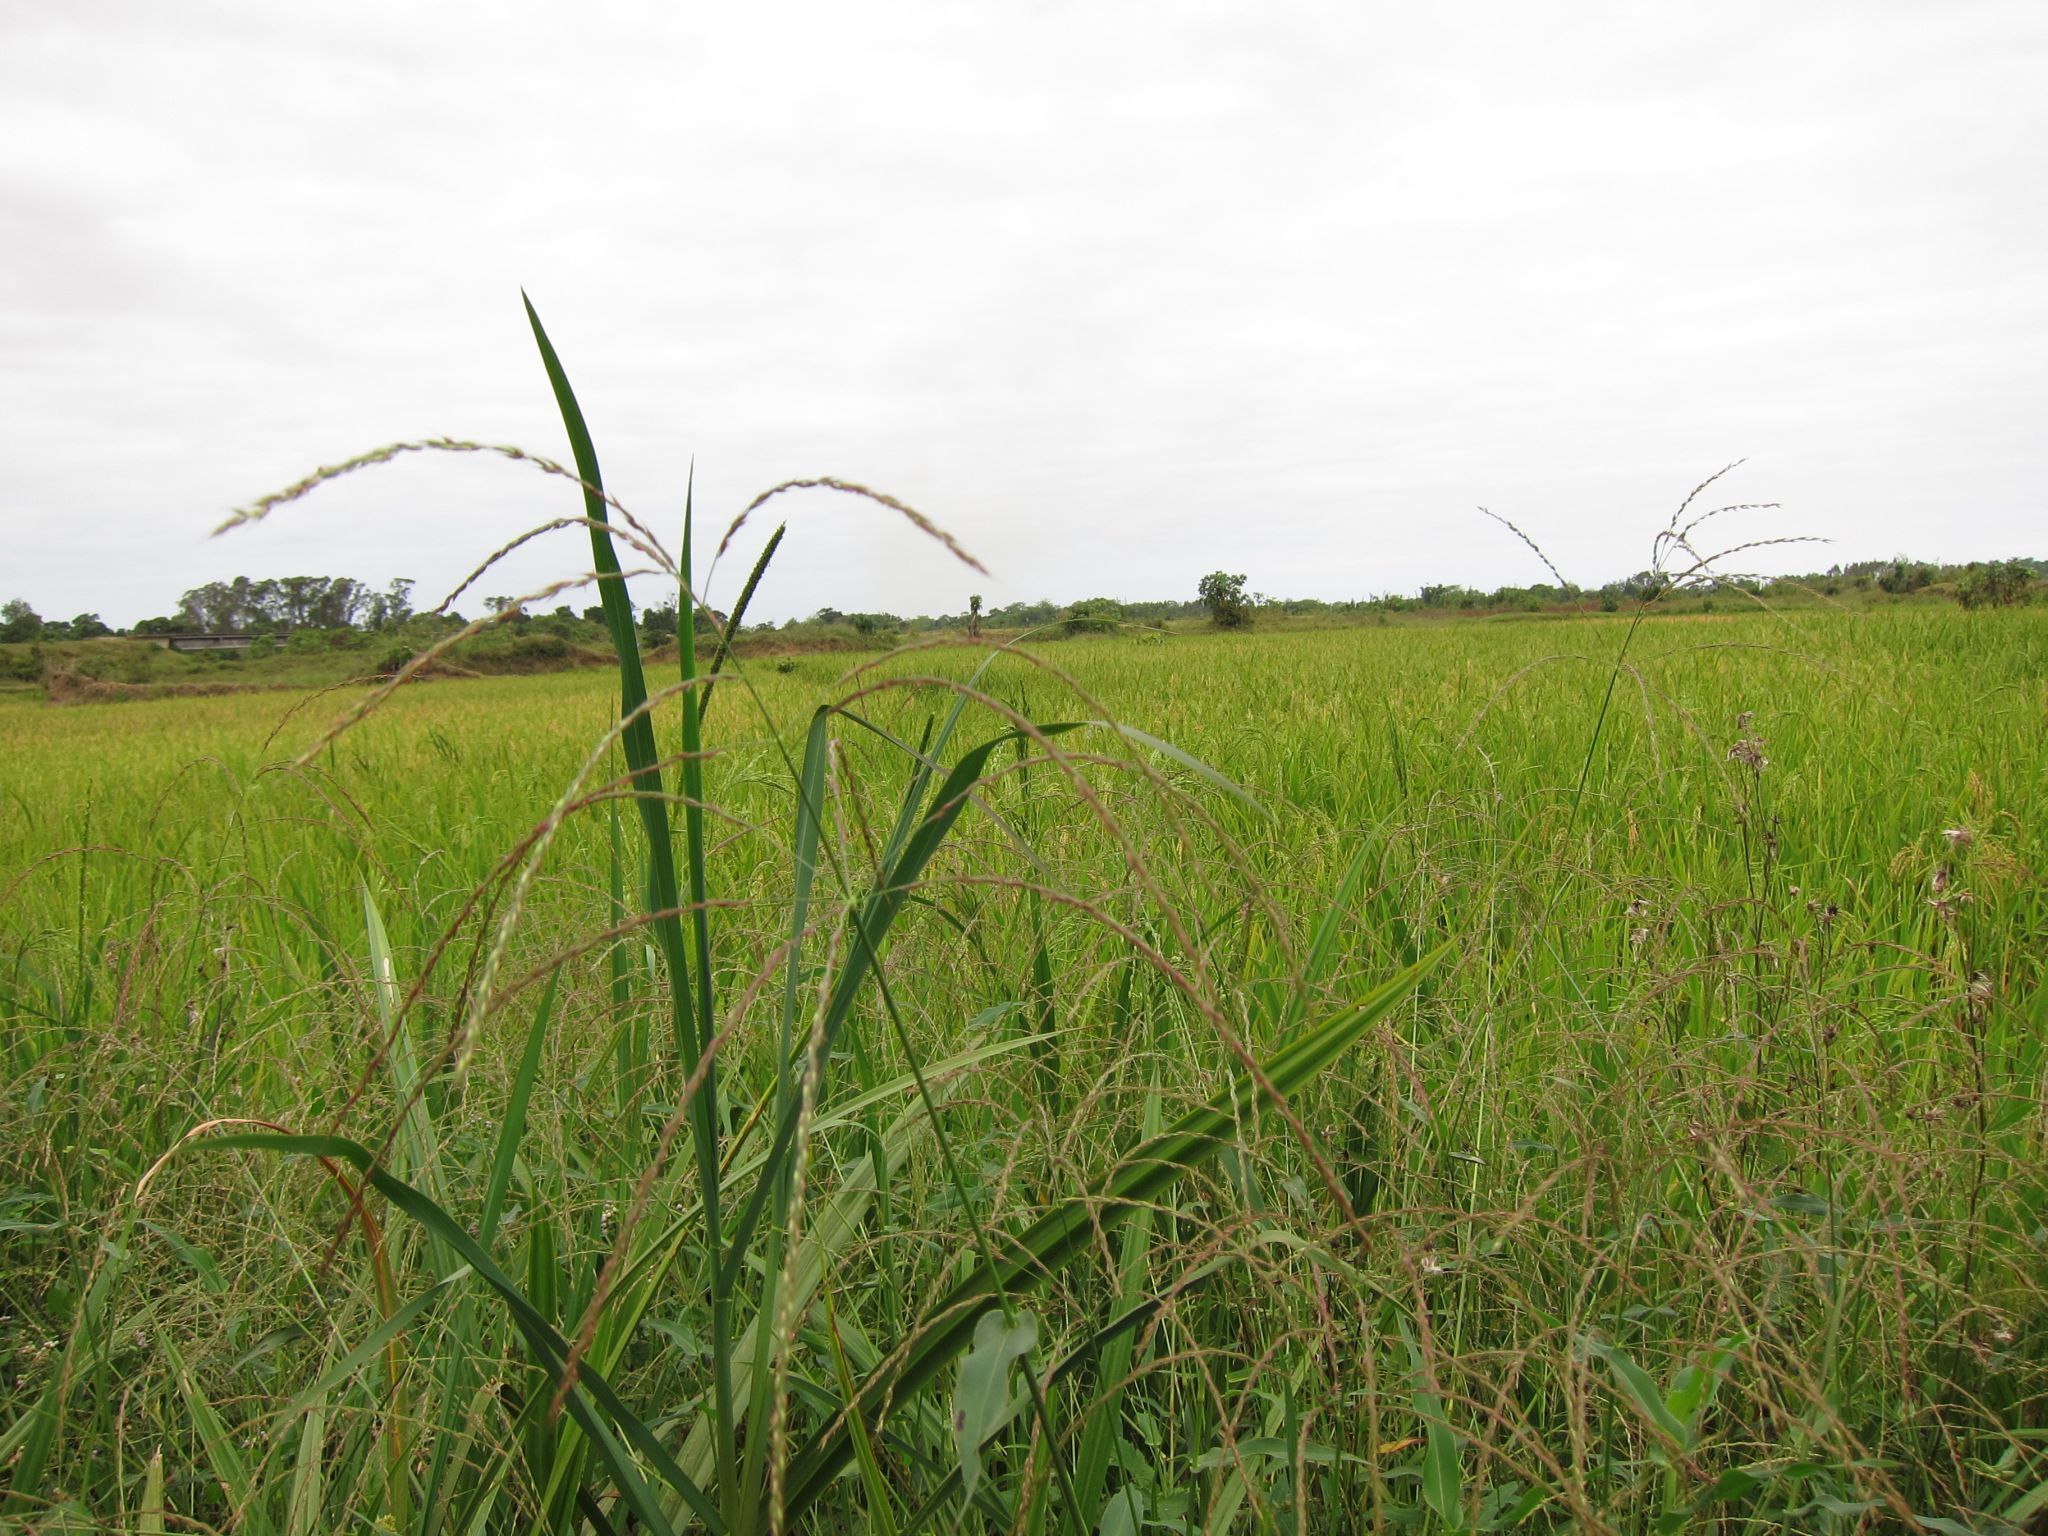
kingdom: Plantae
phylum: Tracheophyta
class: Liliopsida
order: Poales
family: Poaceae
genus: Alloteropsis
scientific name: Alloteropsis paniculata
